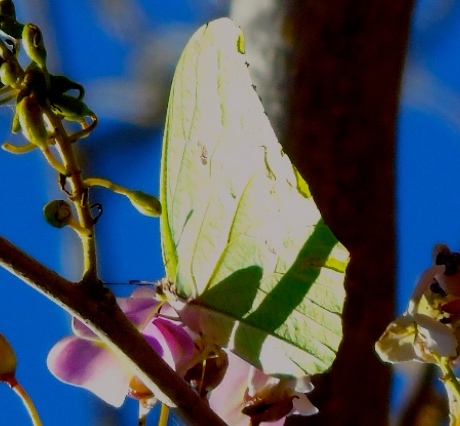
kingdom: Animalia
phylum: Arthropoda
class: Insecta
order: Lepidoptera
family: Pieridae
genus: Anteos
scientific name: Anteos maerula
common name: Angled sulphur
